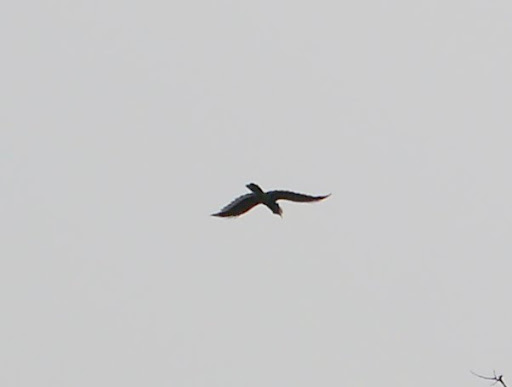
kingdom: Animalia
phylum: Chordata
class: Aves
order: Bucerotiformes
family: Bucerotidae
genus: Bycanistes
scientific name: Bycanistes subcylindricus
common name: Black-and-white-casqued hornbill
